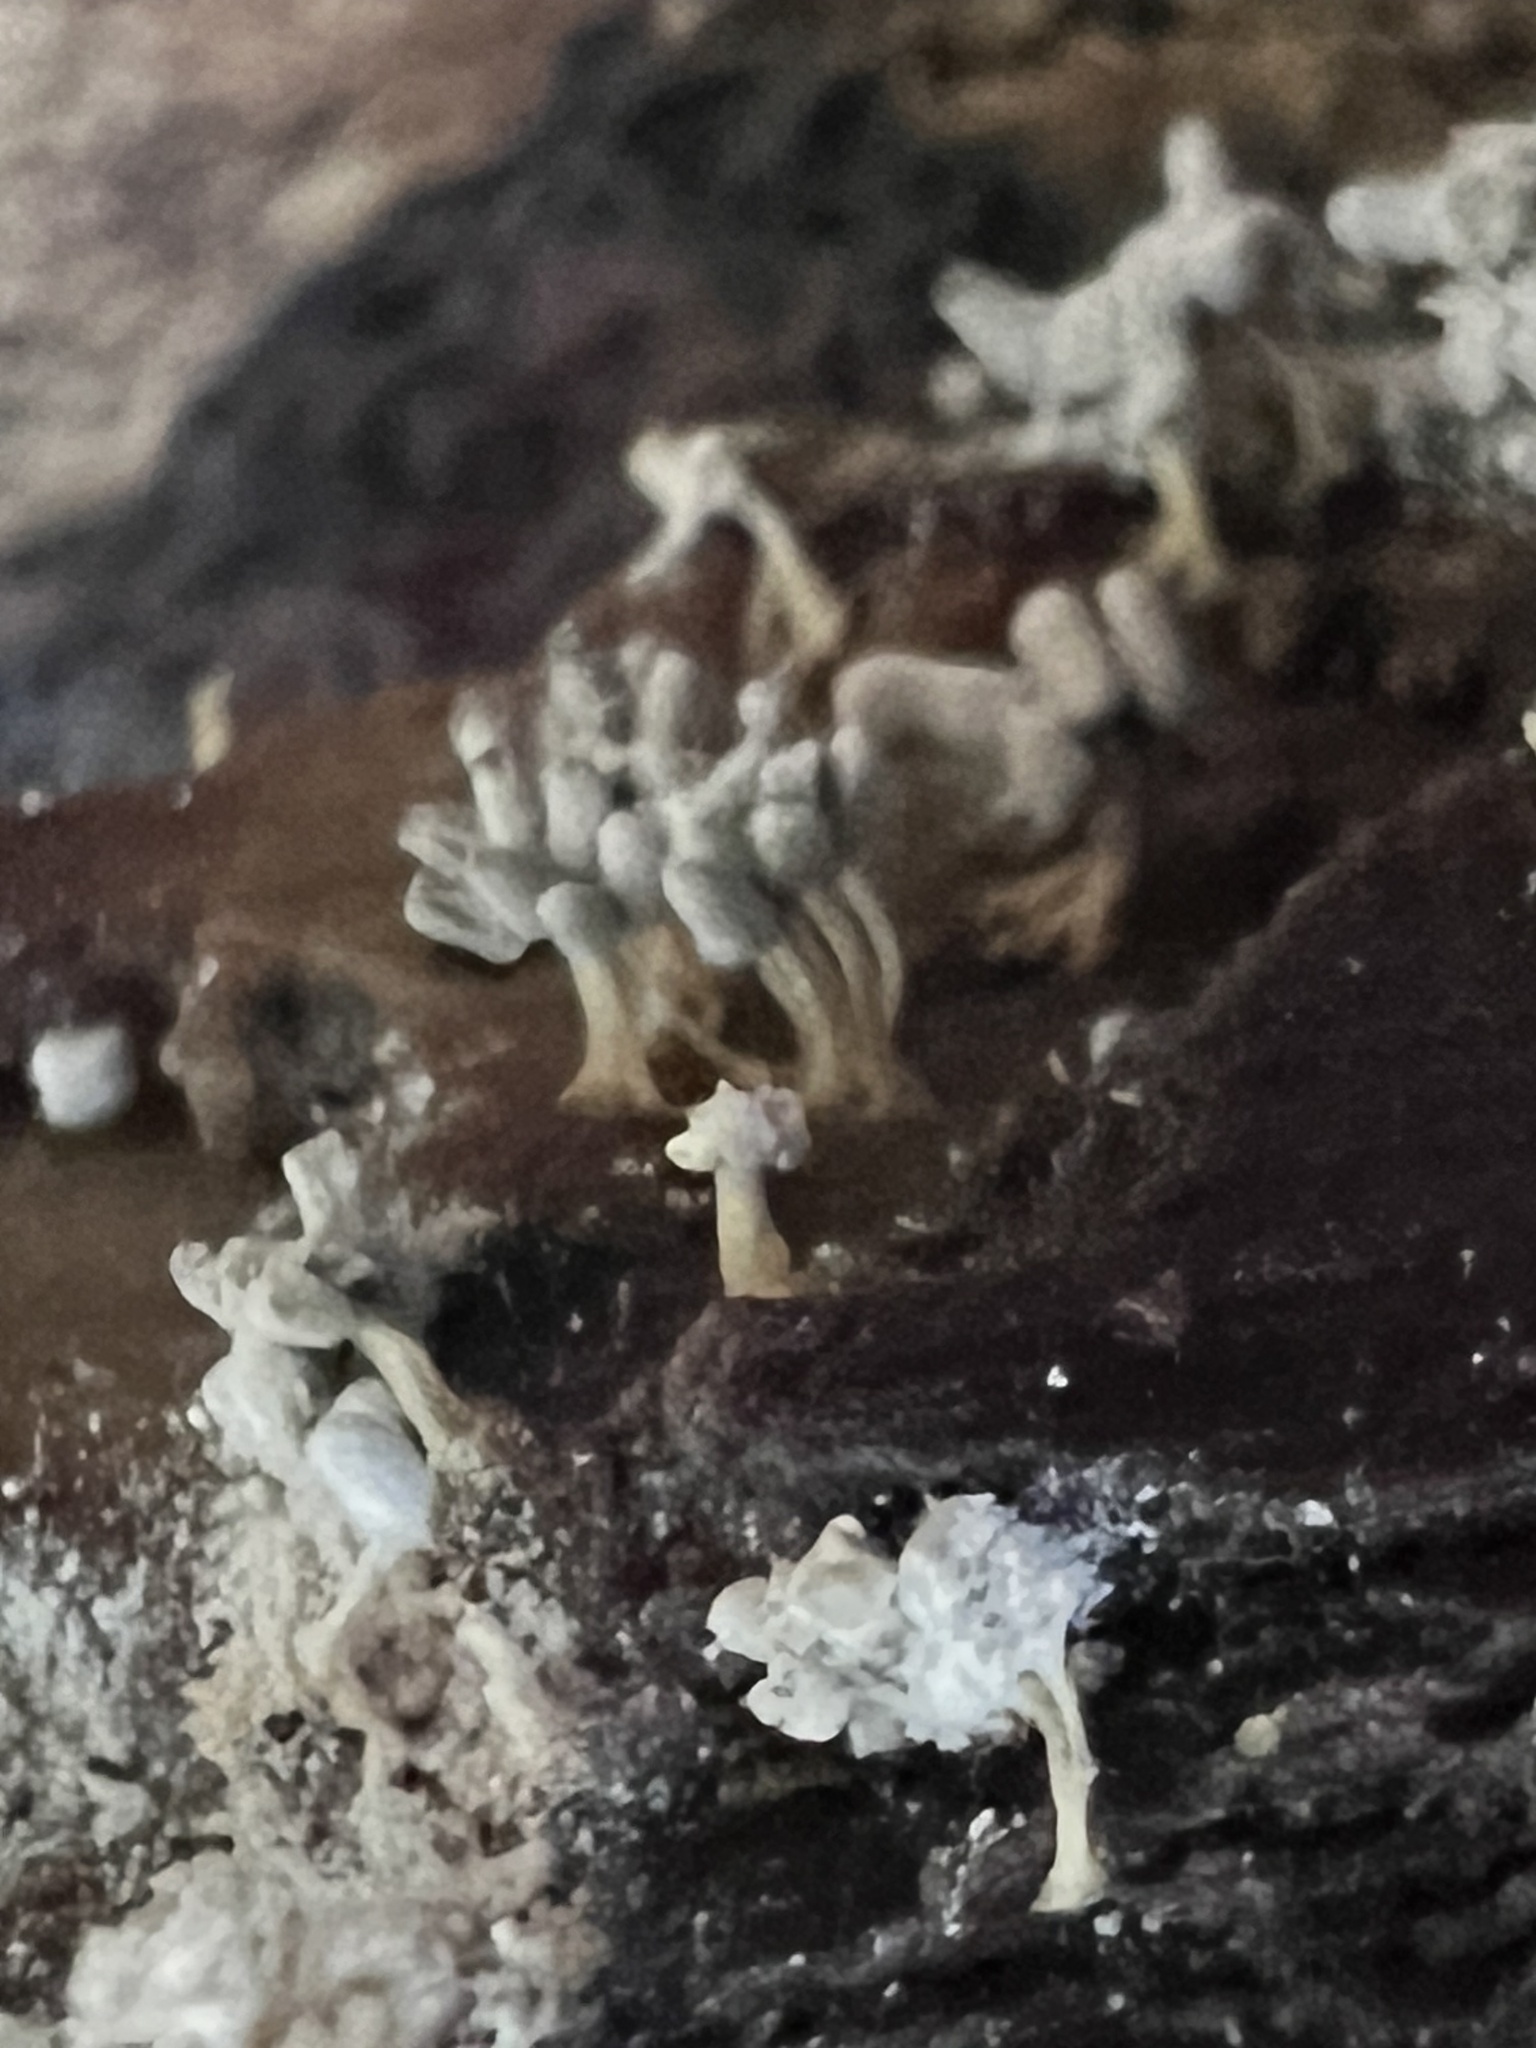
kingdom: Protozoa
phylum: Mycetozoa
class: Myxomycetes
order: Trichiales
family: Arcyriaceae
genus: Arcyria
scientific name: Arcyria cinerea
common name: White carnival candy slime mold
